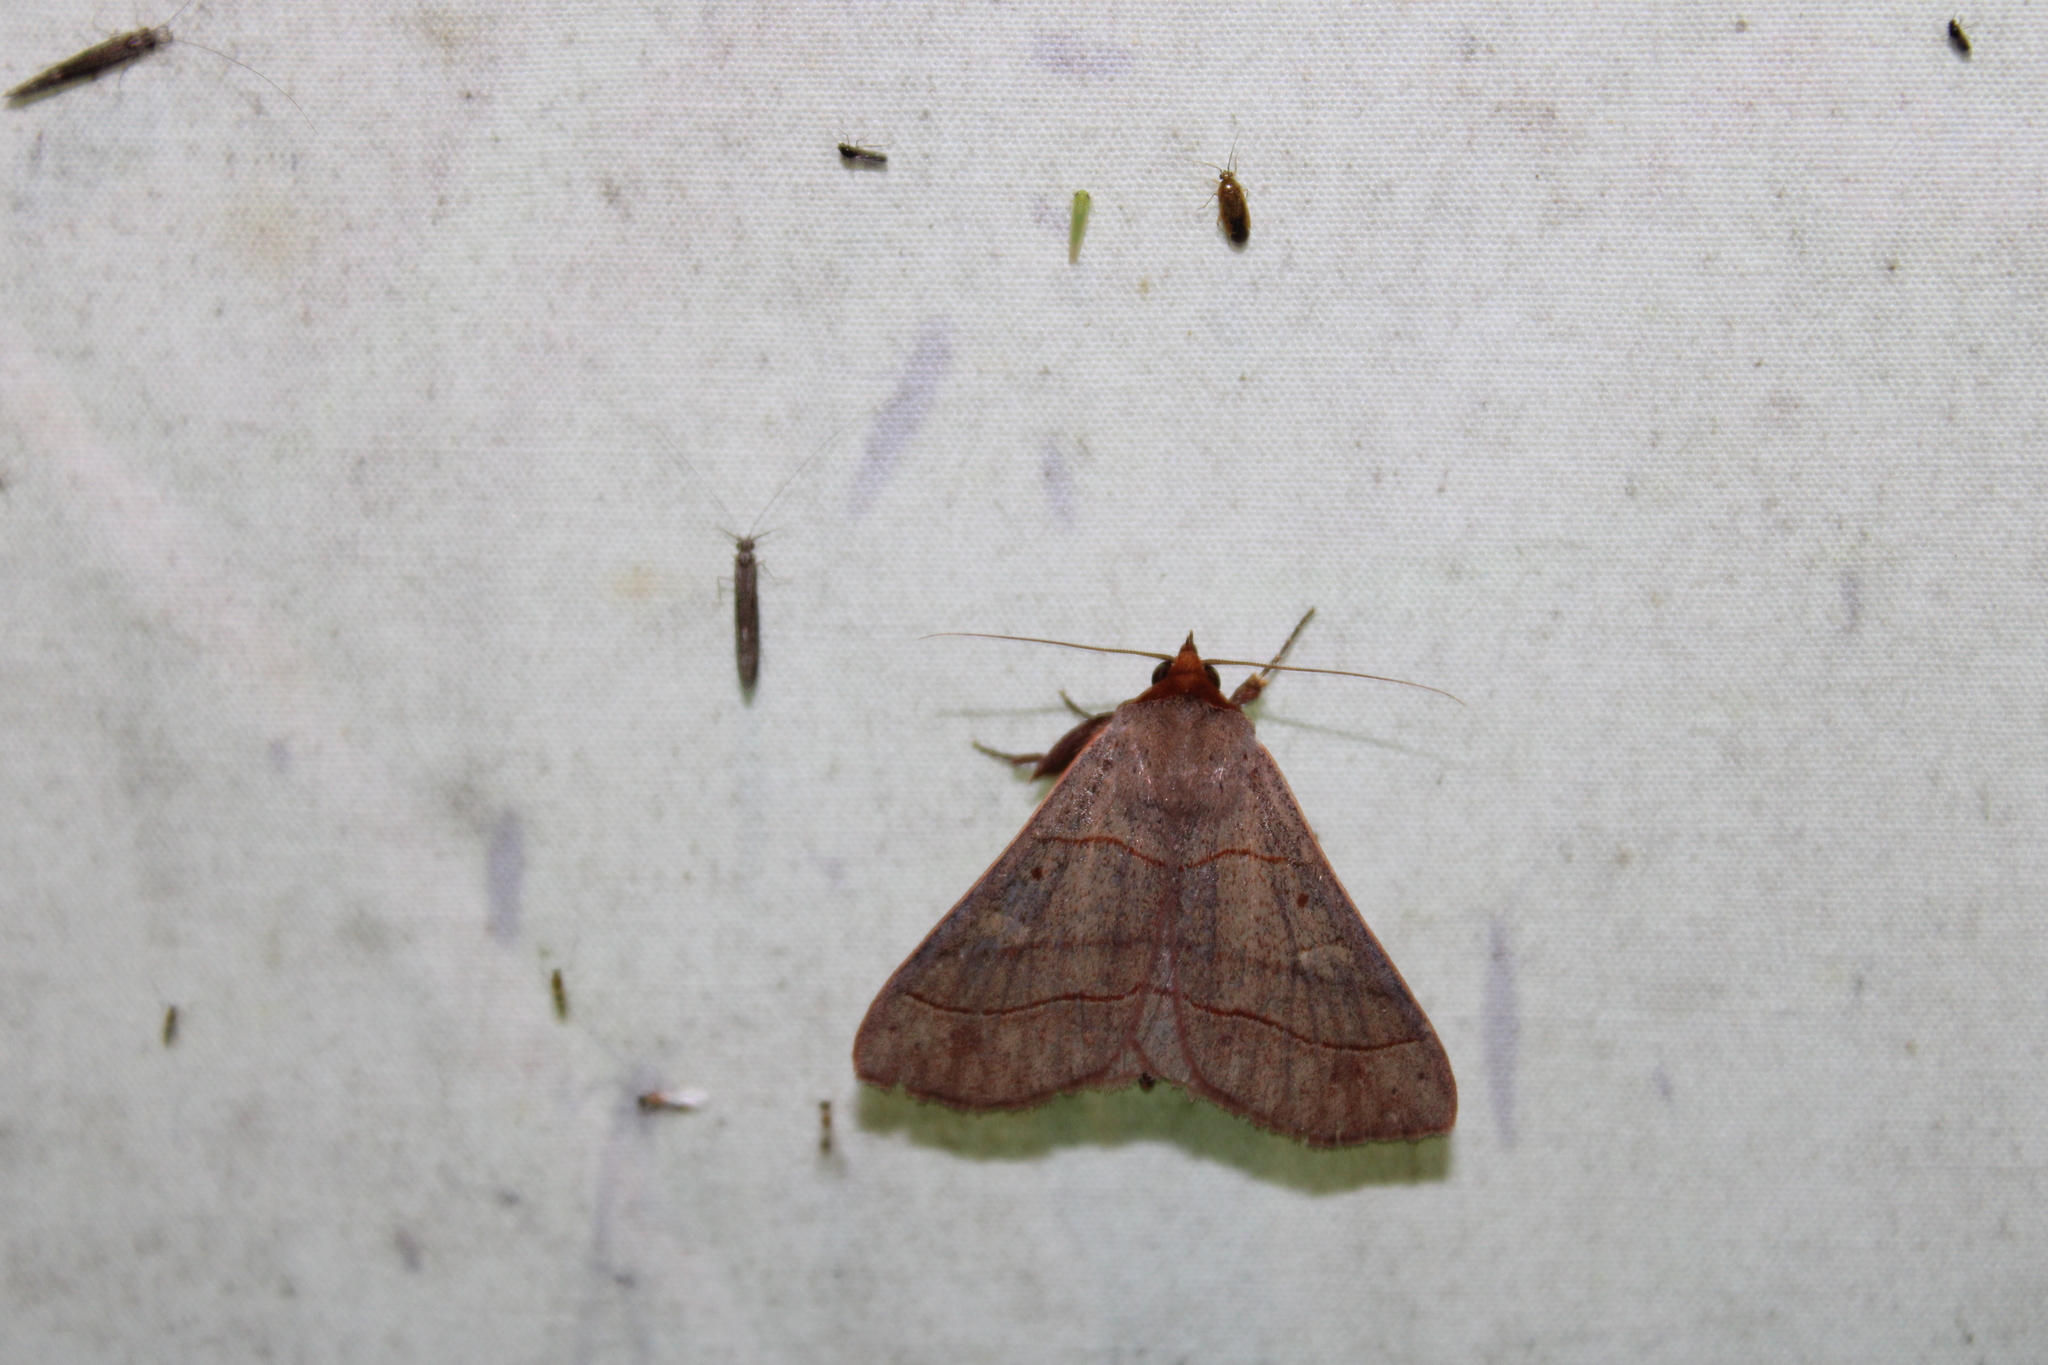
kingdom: Animalia
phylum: Arthropoda
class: Insecta
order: Lepidoptera
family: Erebidae
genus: Panopoda
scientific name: Panopoda rufimargo
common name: Red-lined panopoda moth
